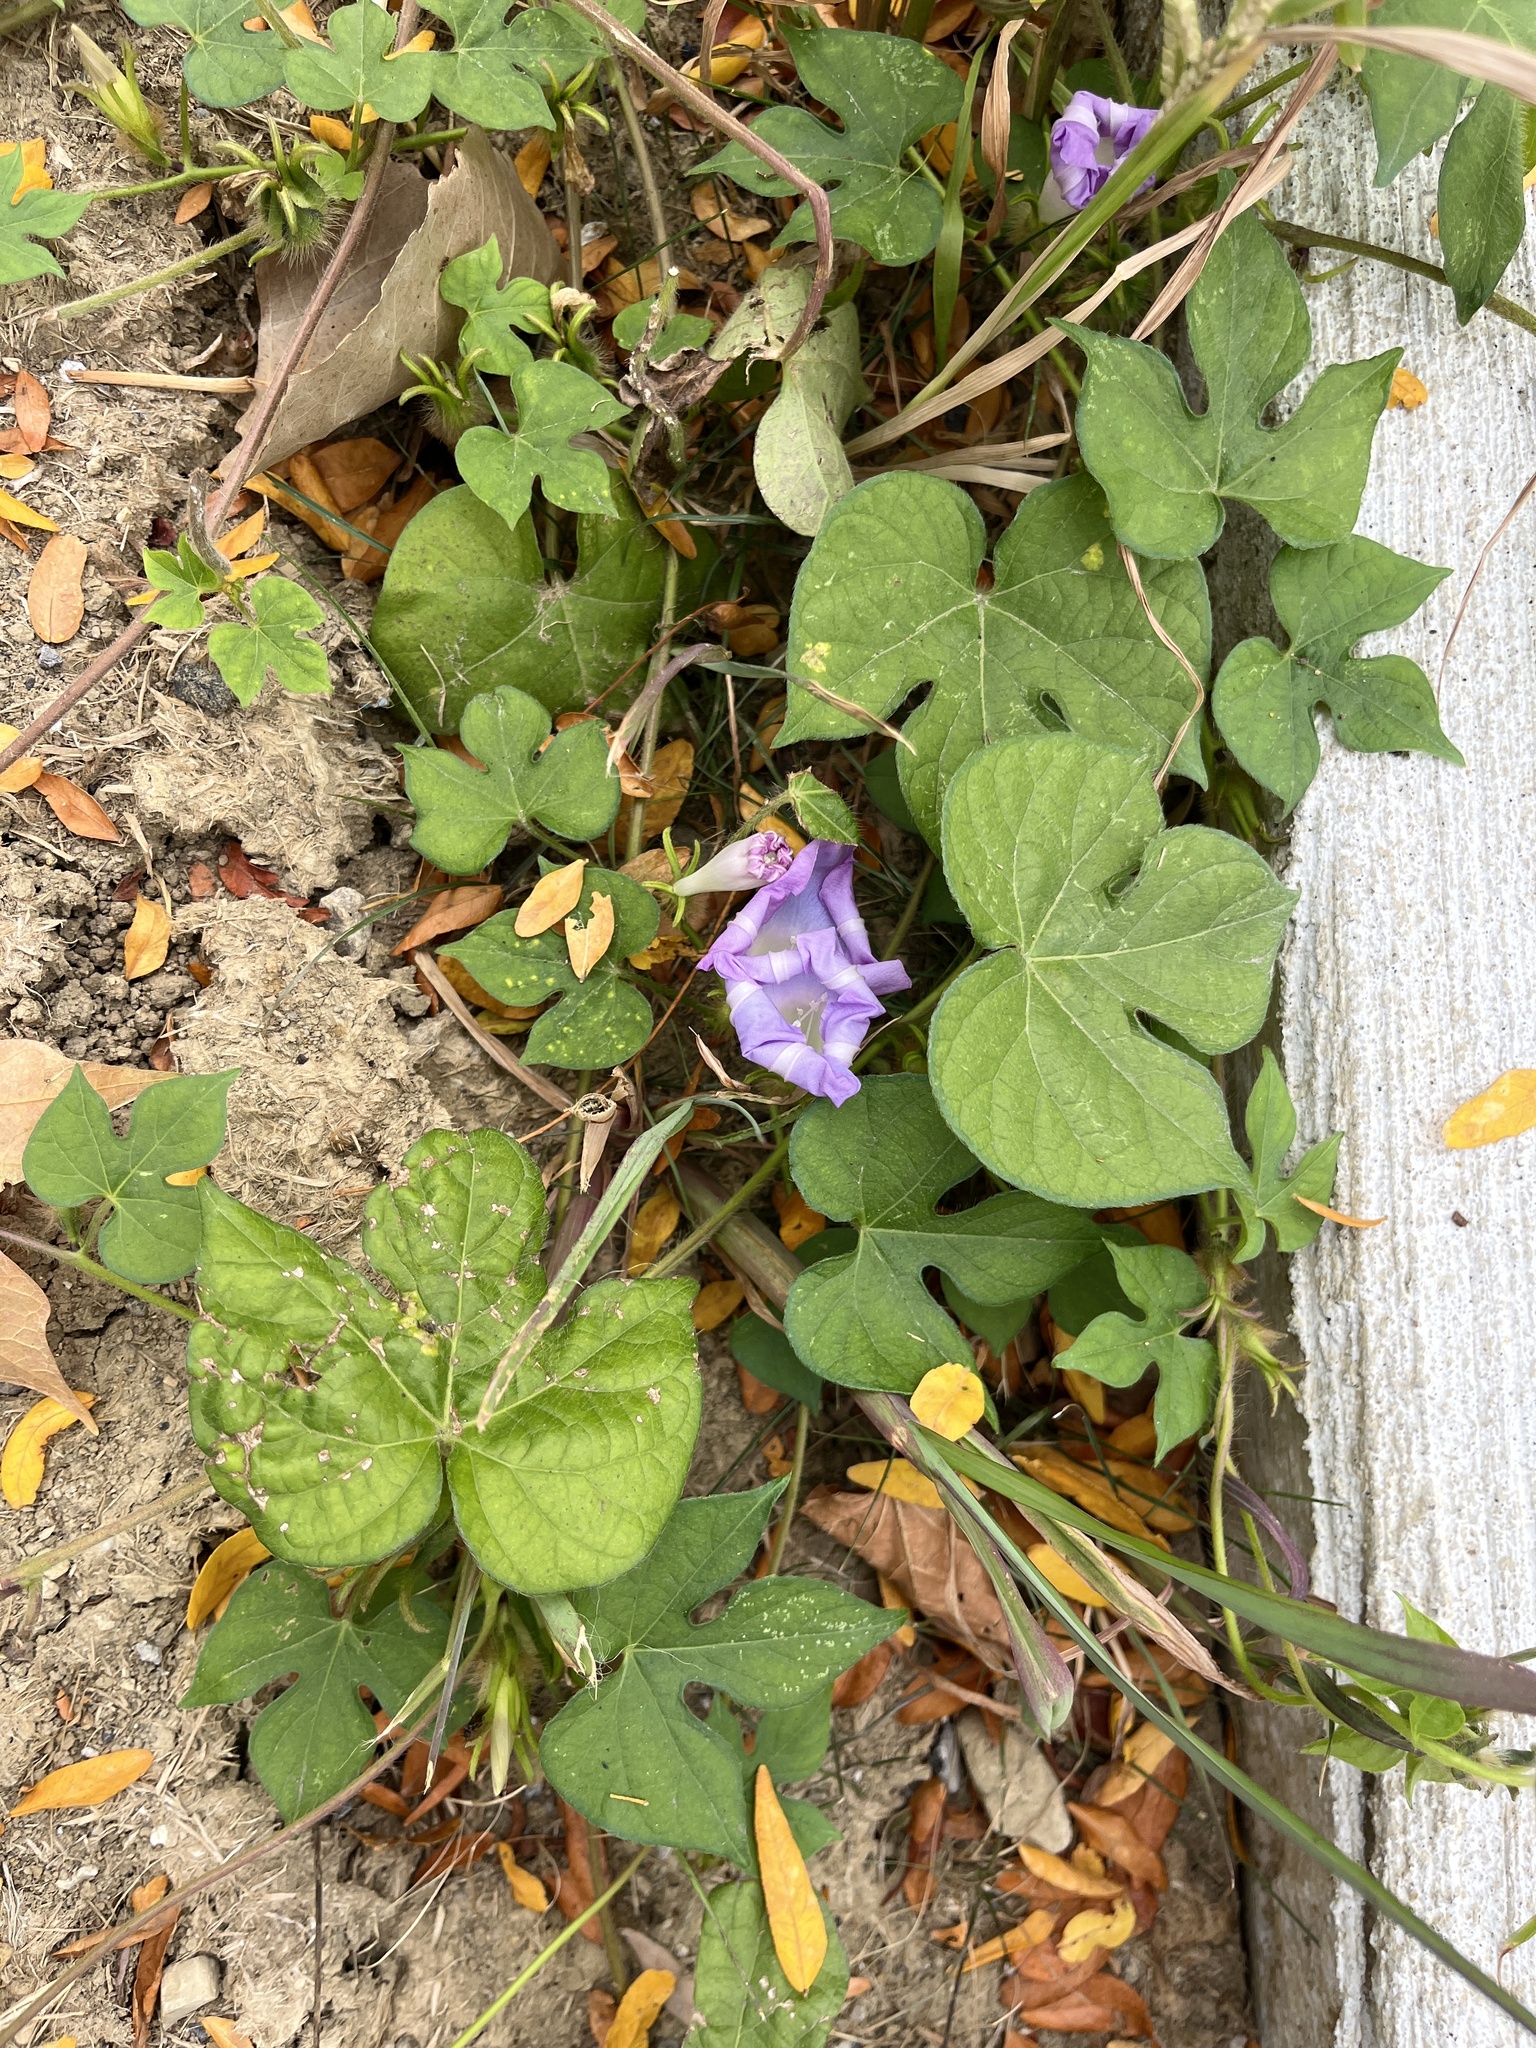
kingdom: Plantae
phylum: Tracheophyta
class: Magnoliopsida
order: Solanales
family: Convolvulaceae
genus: Ipomoea
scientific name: Ipomoea hederacea
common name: Ivy-leaved morning-glory
